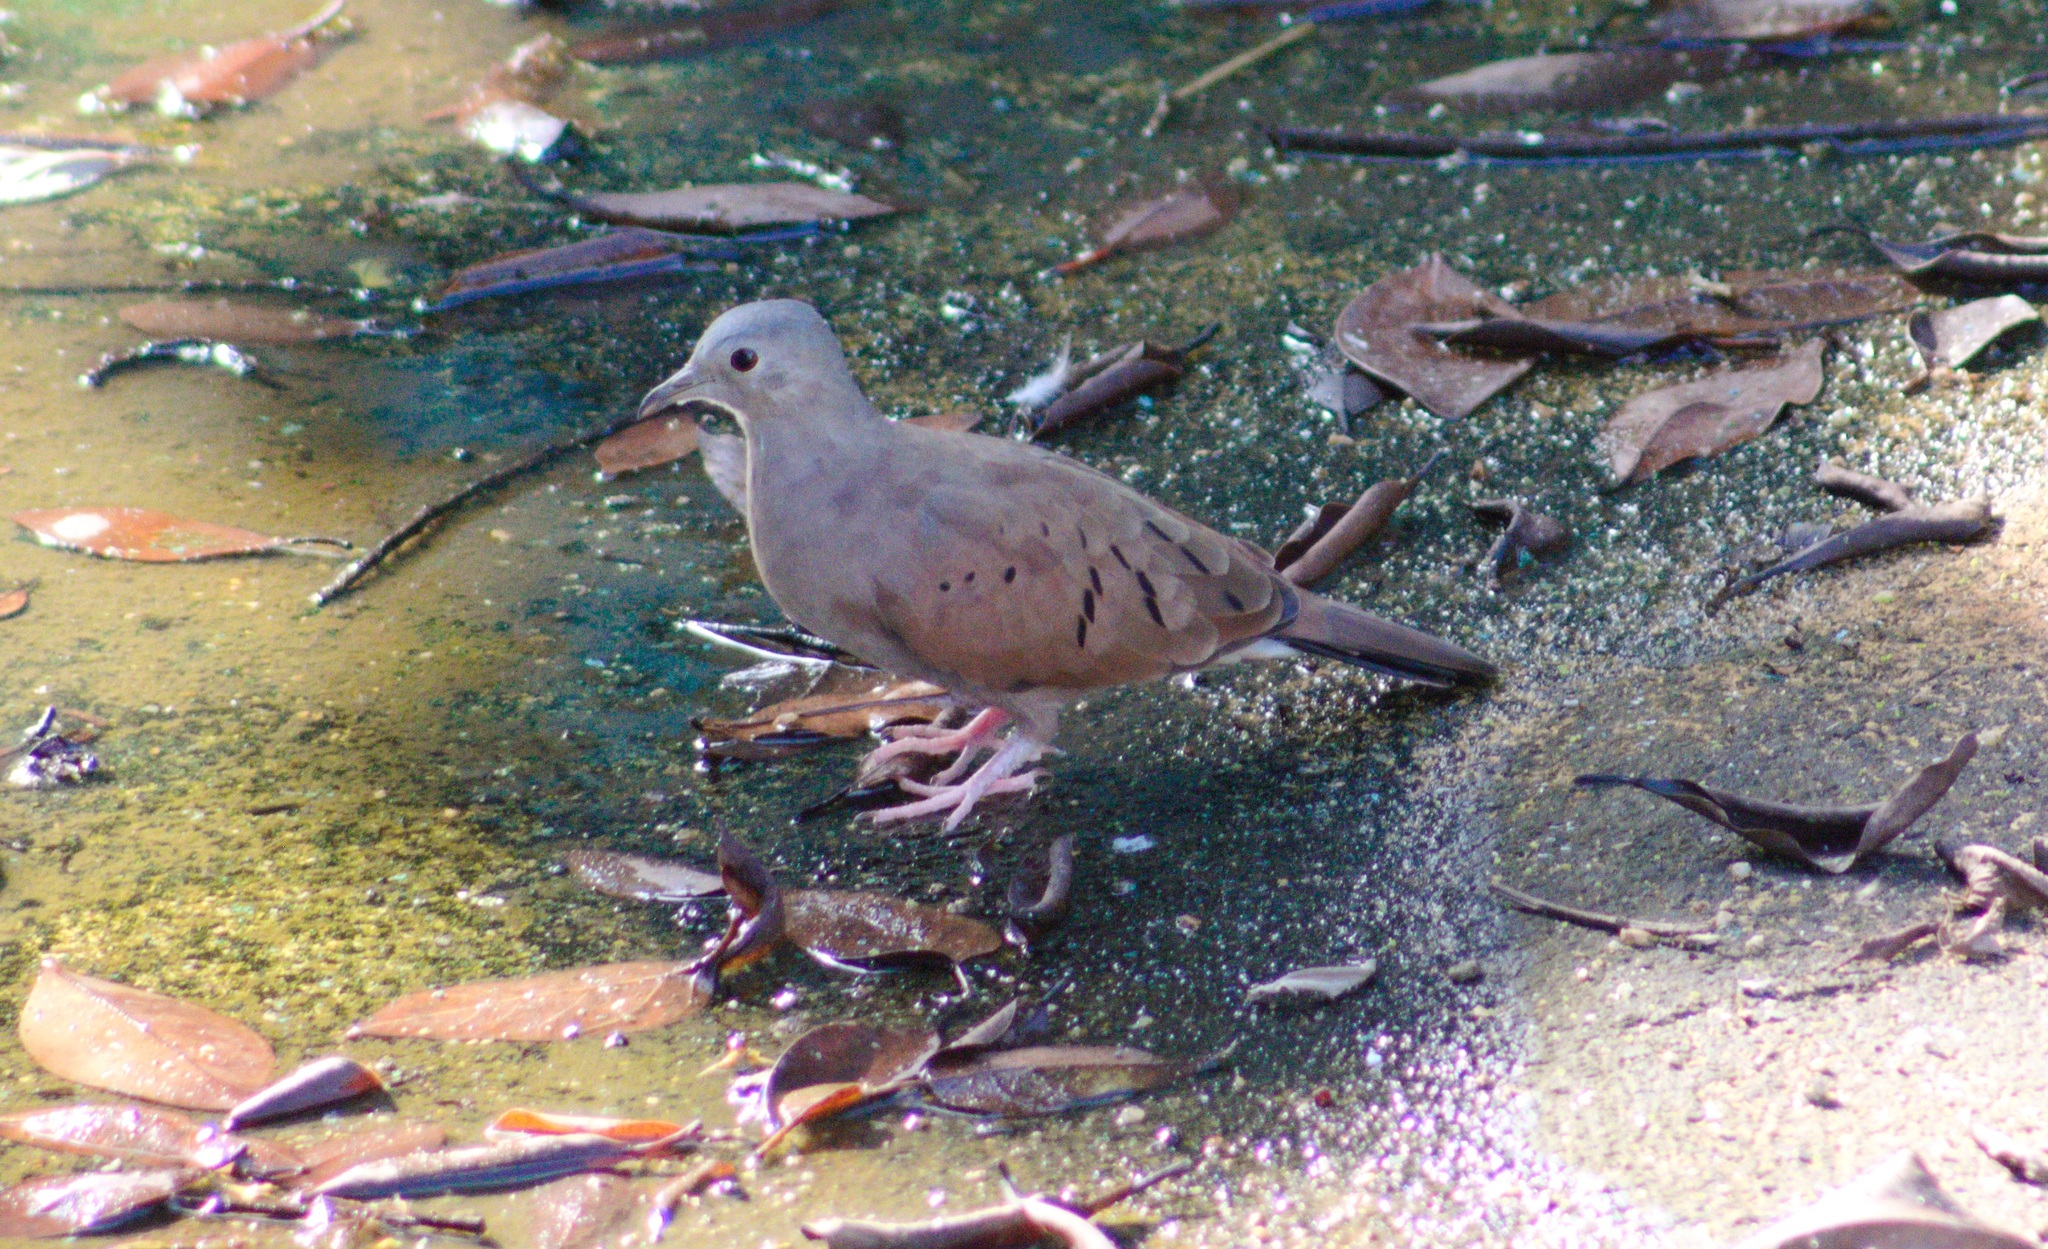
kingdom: Animalia
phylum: Chordata
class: Aves
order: Columbiformes
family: Columbidae
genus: Columbina
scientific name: Columbina talpacoti
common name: Ruddy ground dove
